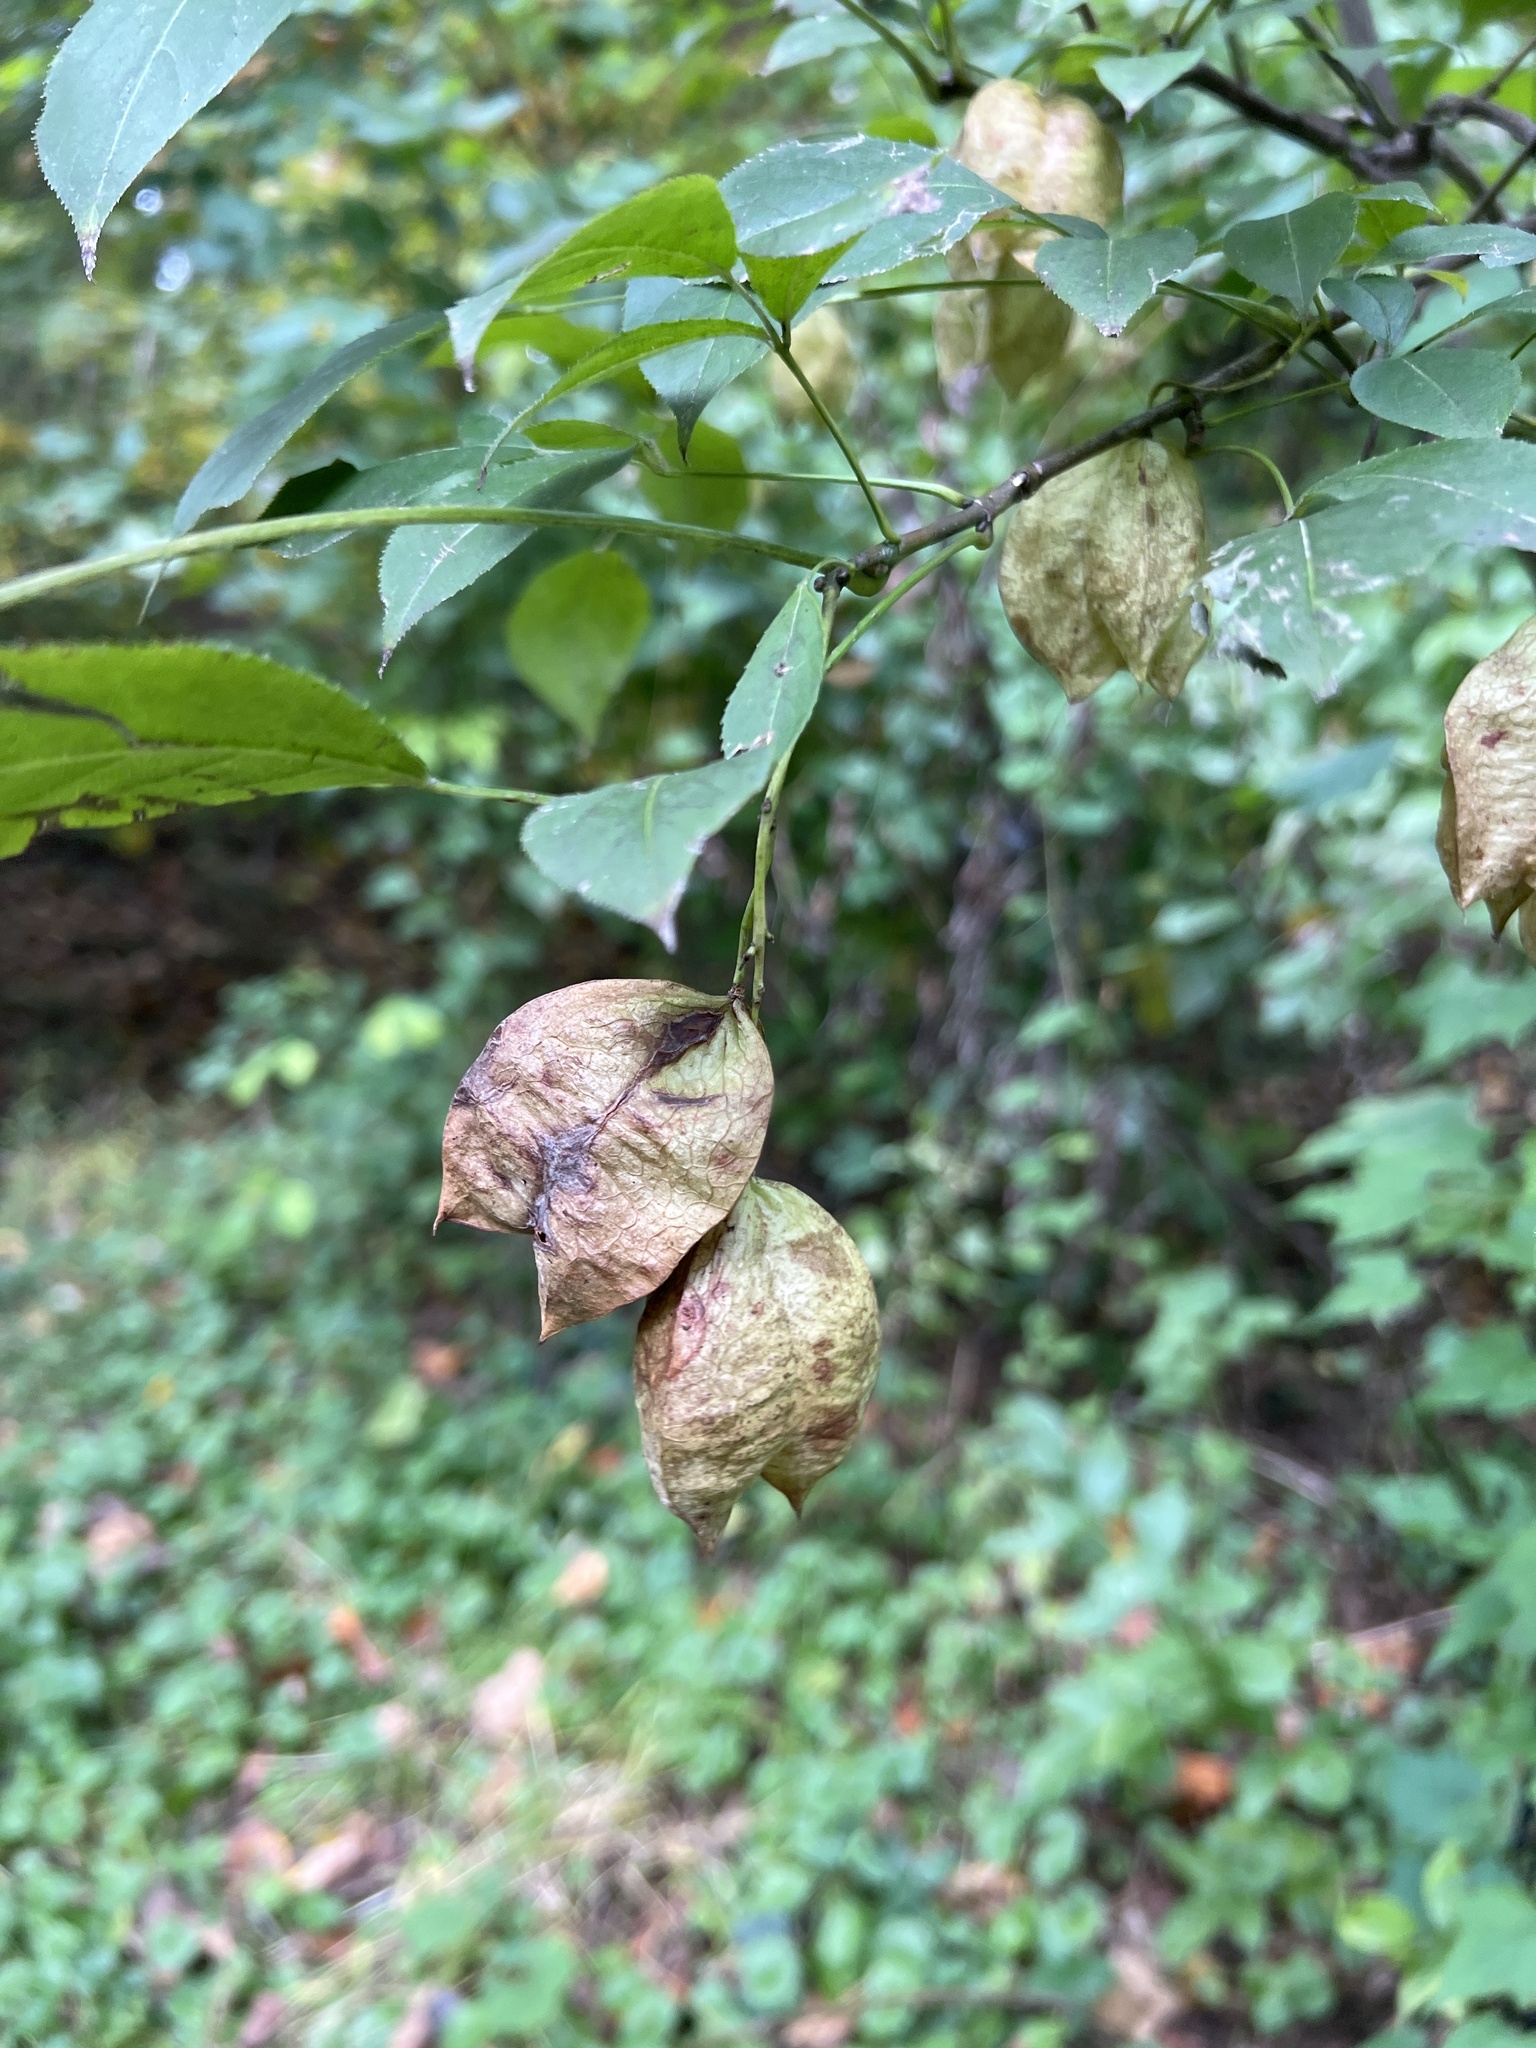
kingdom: Plantae
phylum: Tracheophyta
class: Magnoliopsida
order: Crossosomatales
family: Staphyleaceae
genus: Staphylea
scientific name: Staphylea trifolia
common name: American bladdernut
